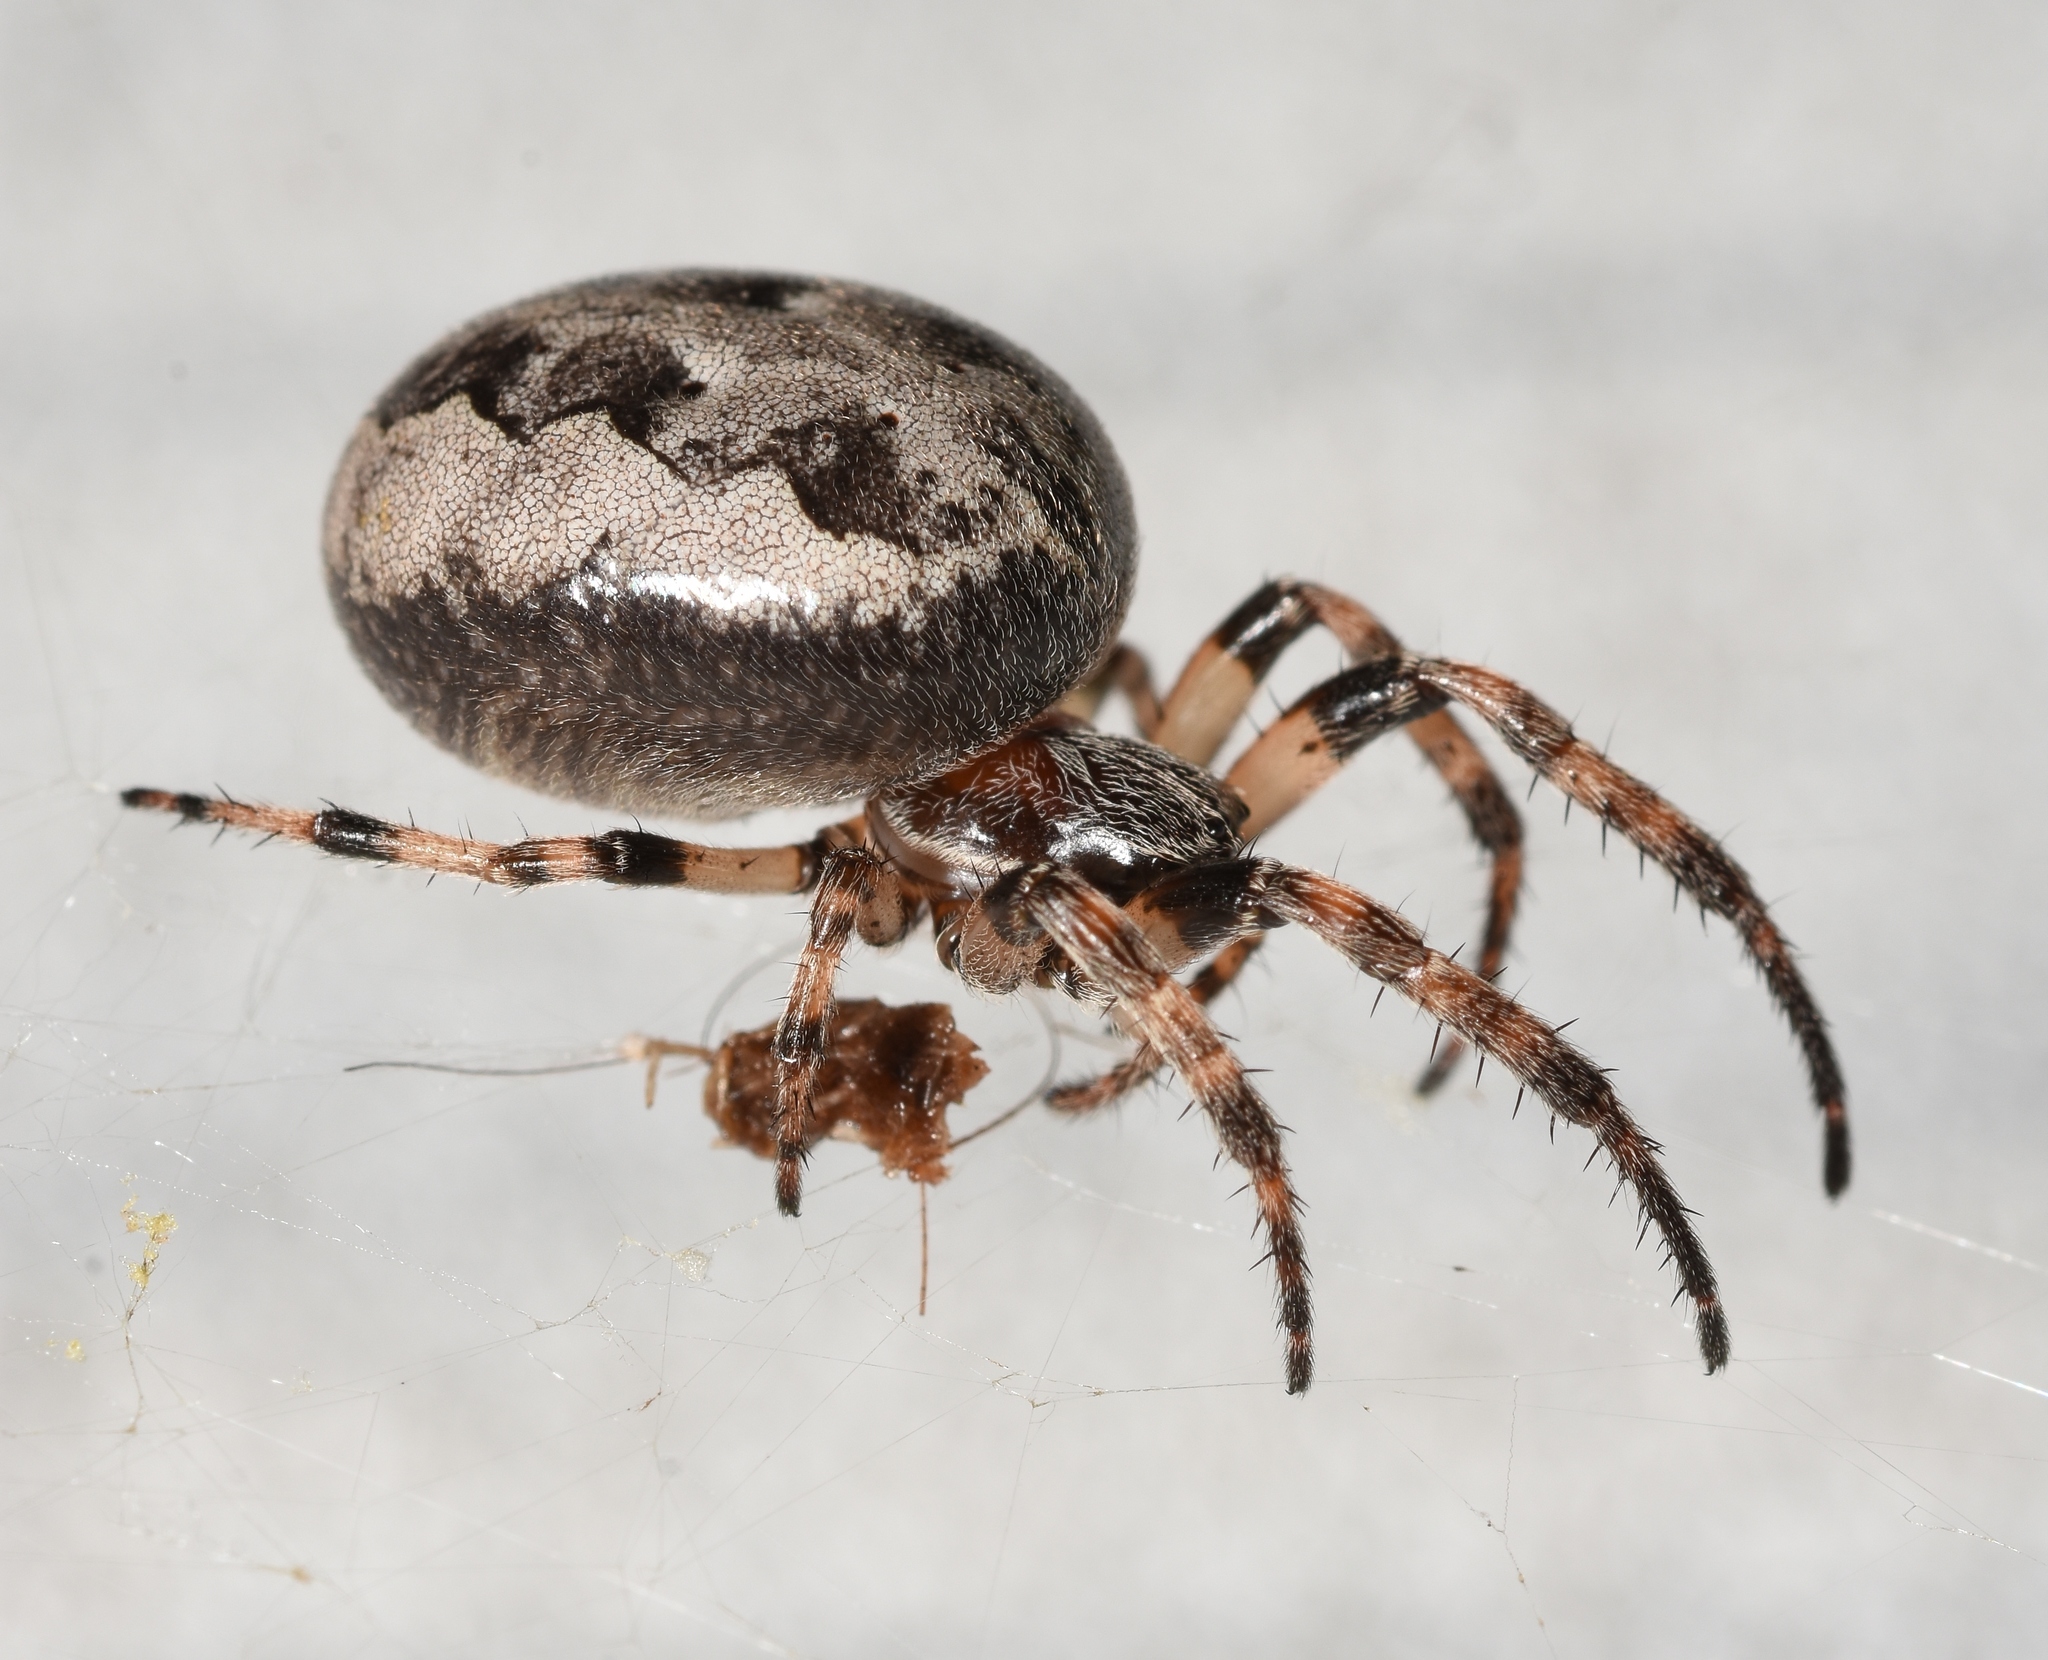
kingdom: Animalia
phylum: Arthropoda
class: Arachnida
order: Araneae
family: Araneidae
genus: Larinioides
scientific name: Larinioides cornutus
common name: Furrow orbweaver
